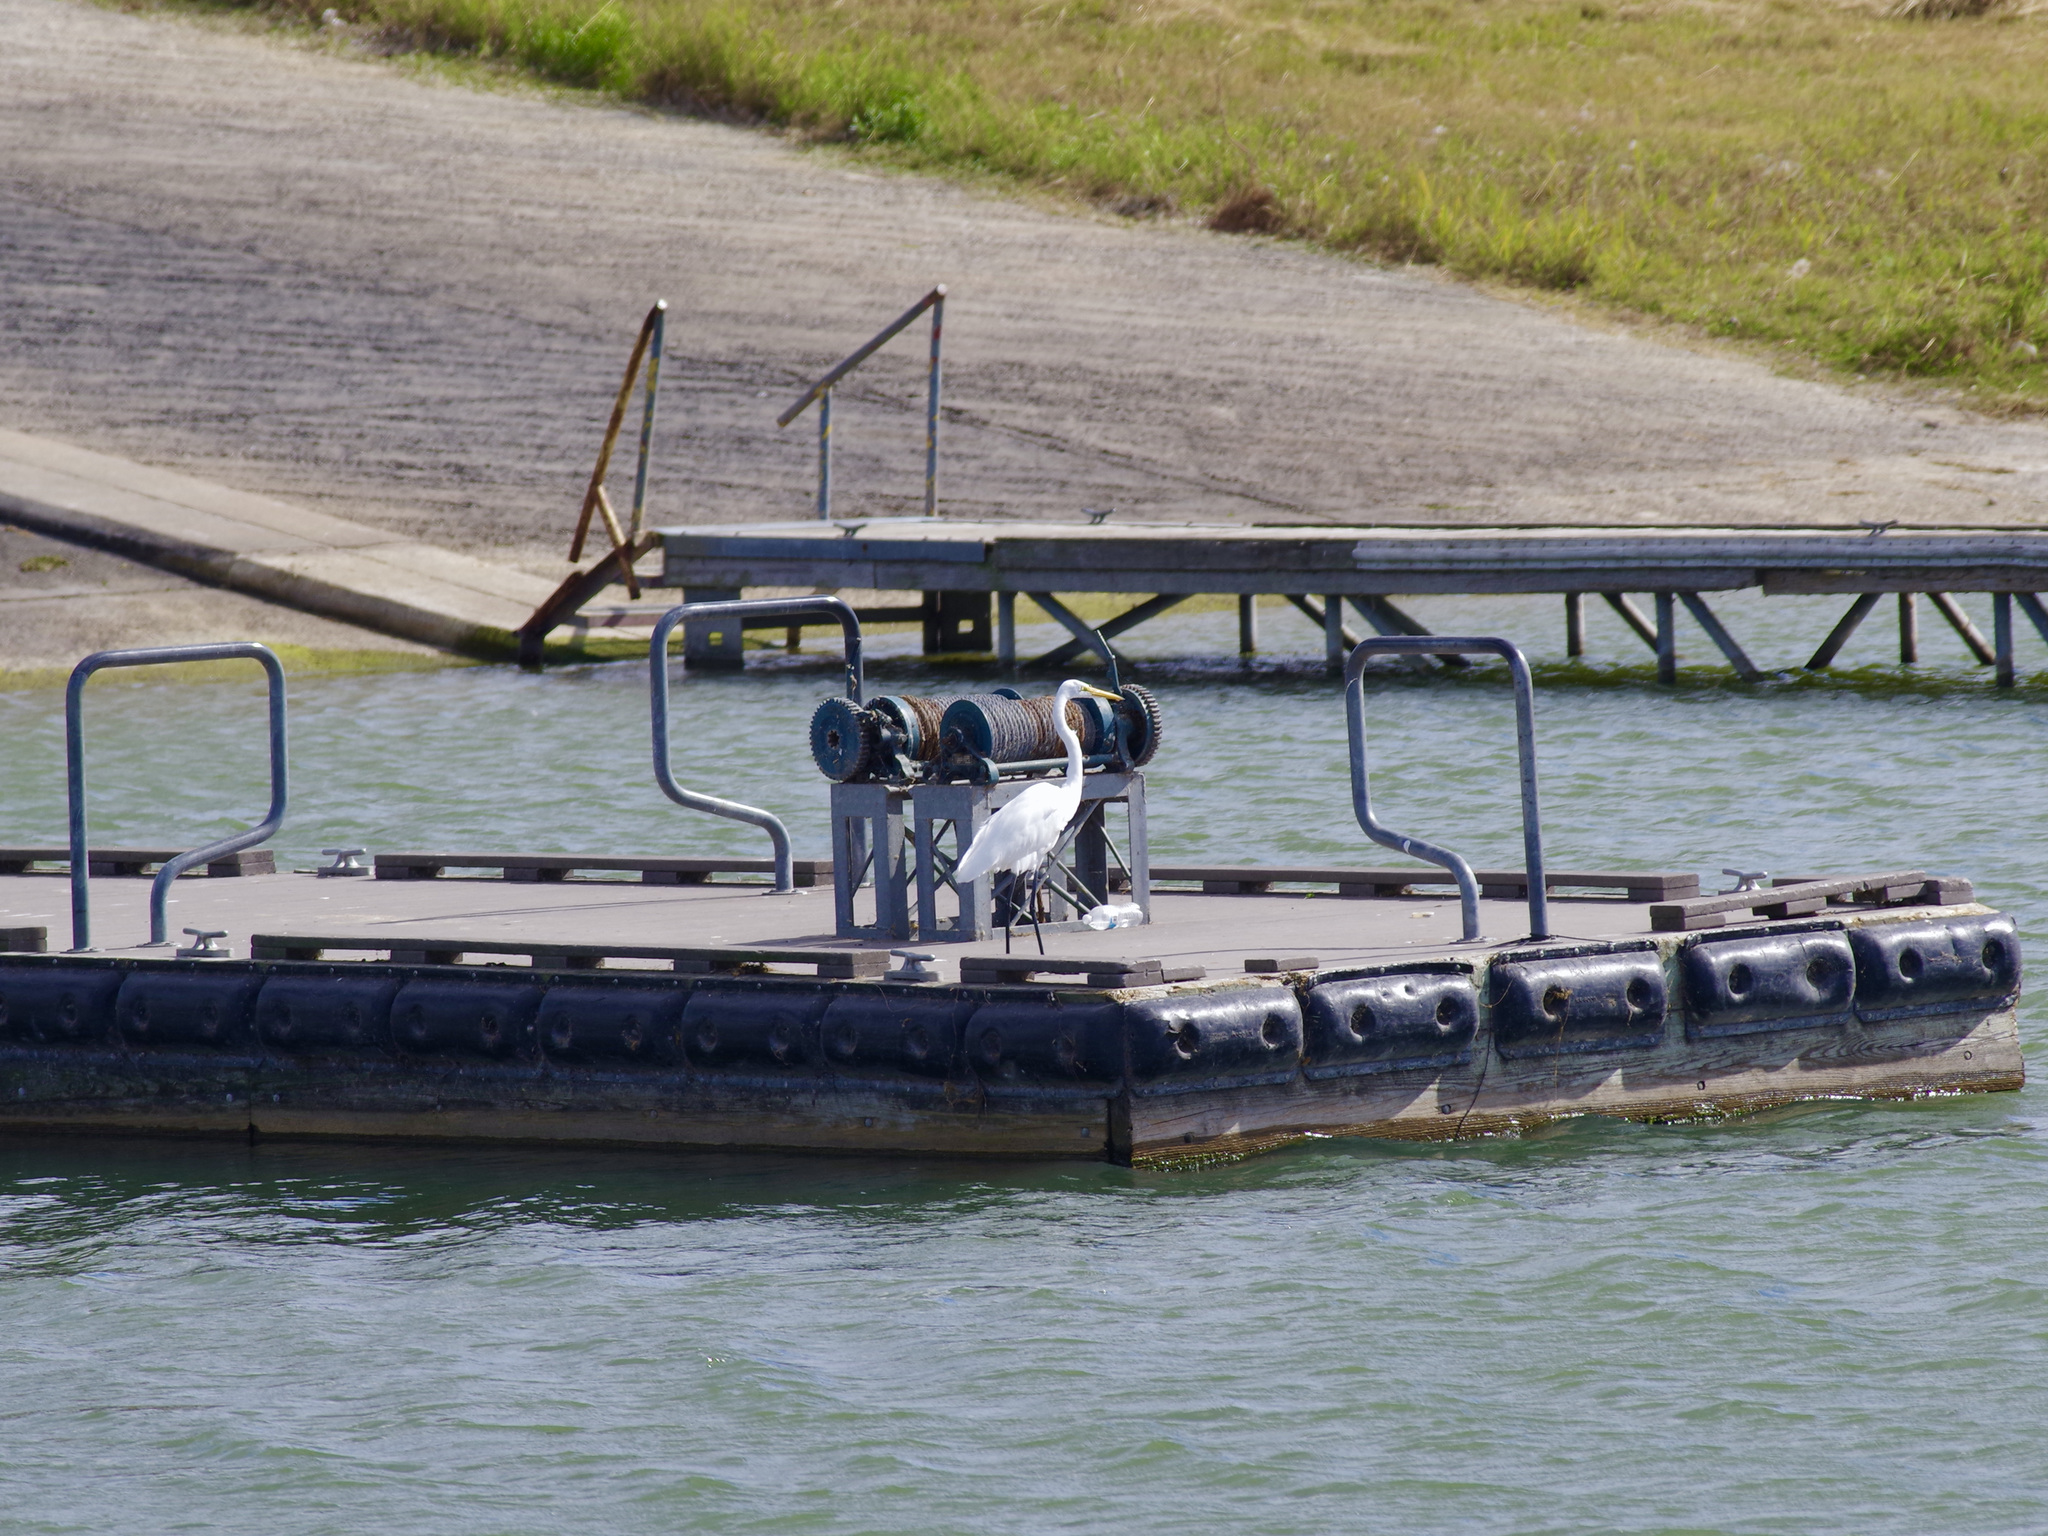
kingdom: Animalia
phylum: Chordata
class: Aves
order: Pelecaniformes
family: Ardeidae
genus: Ardea
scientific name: Ardea alba
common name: Great egret
